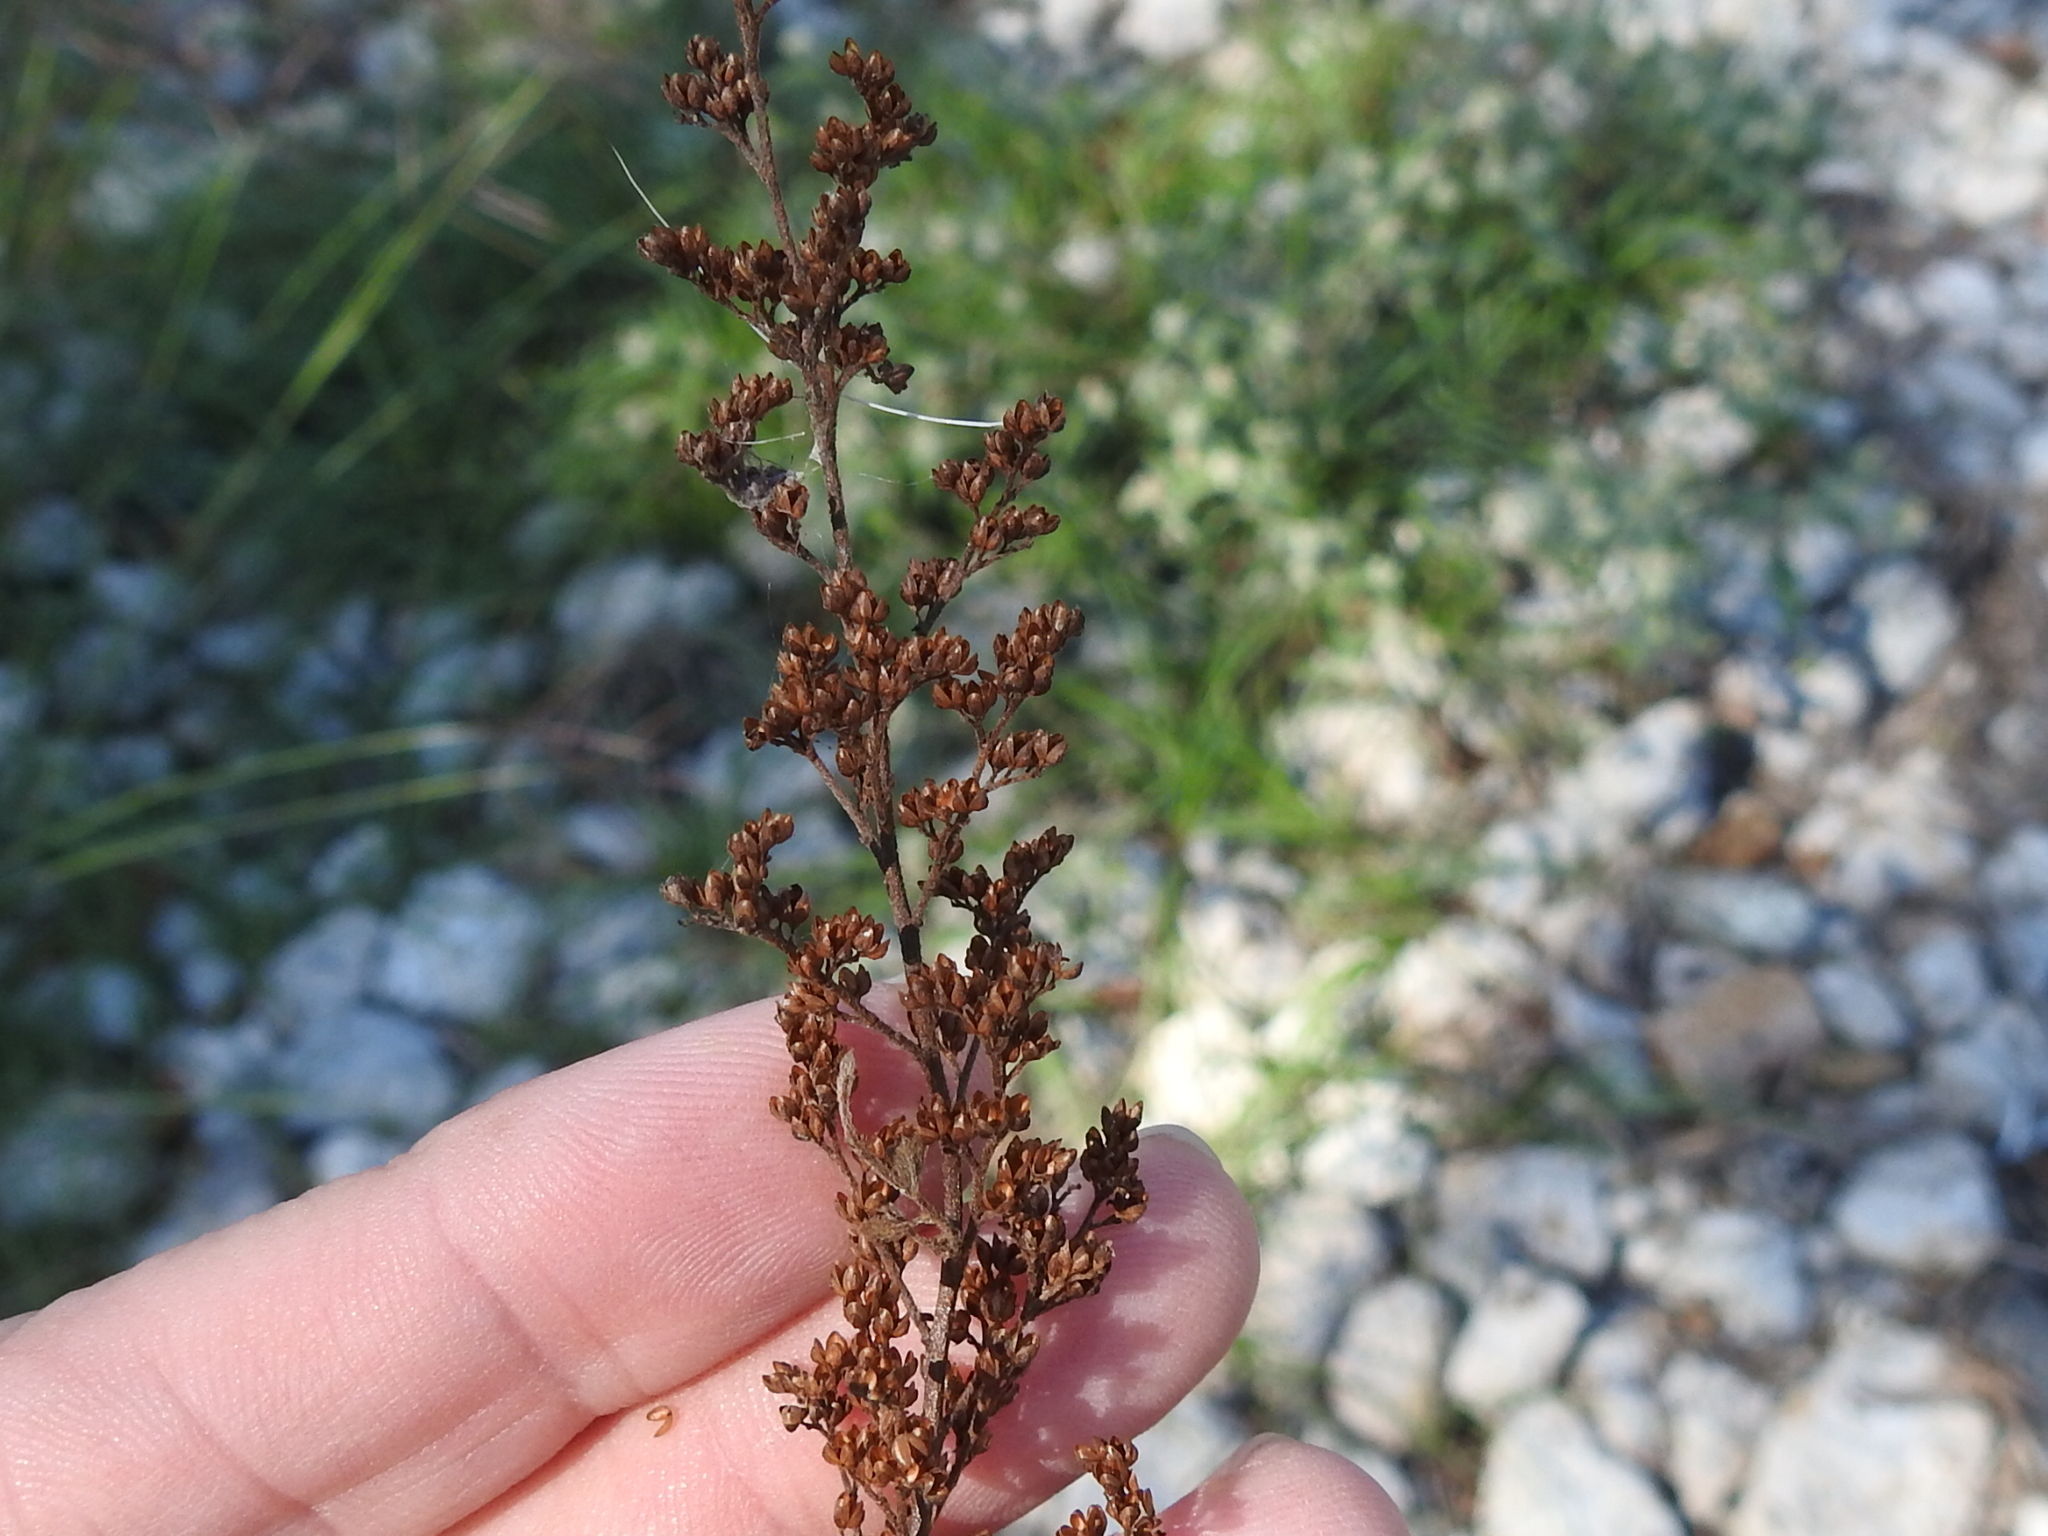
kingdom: Plantae
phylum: Tracheophyta
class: Magnoliopsida
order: Malvales
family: Cistaceae
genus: Lechea
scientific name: Lechea mucronata
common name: Hairy pinweed
